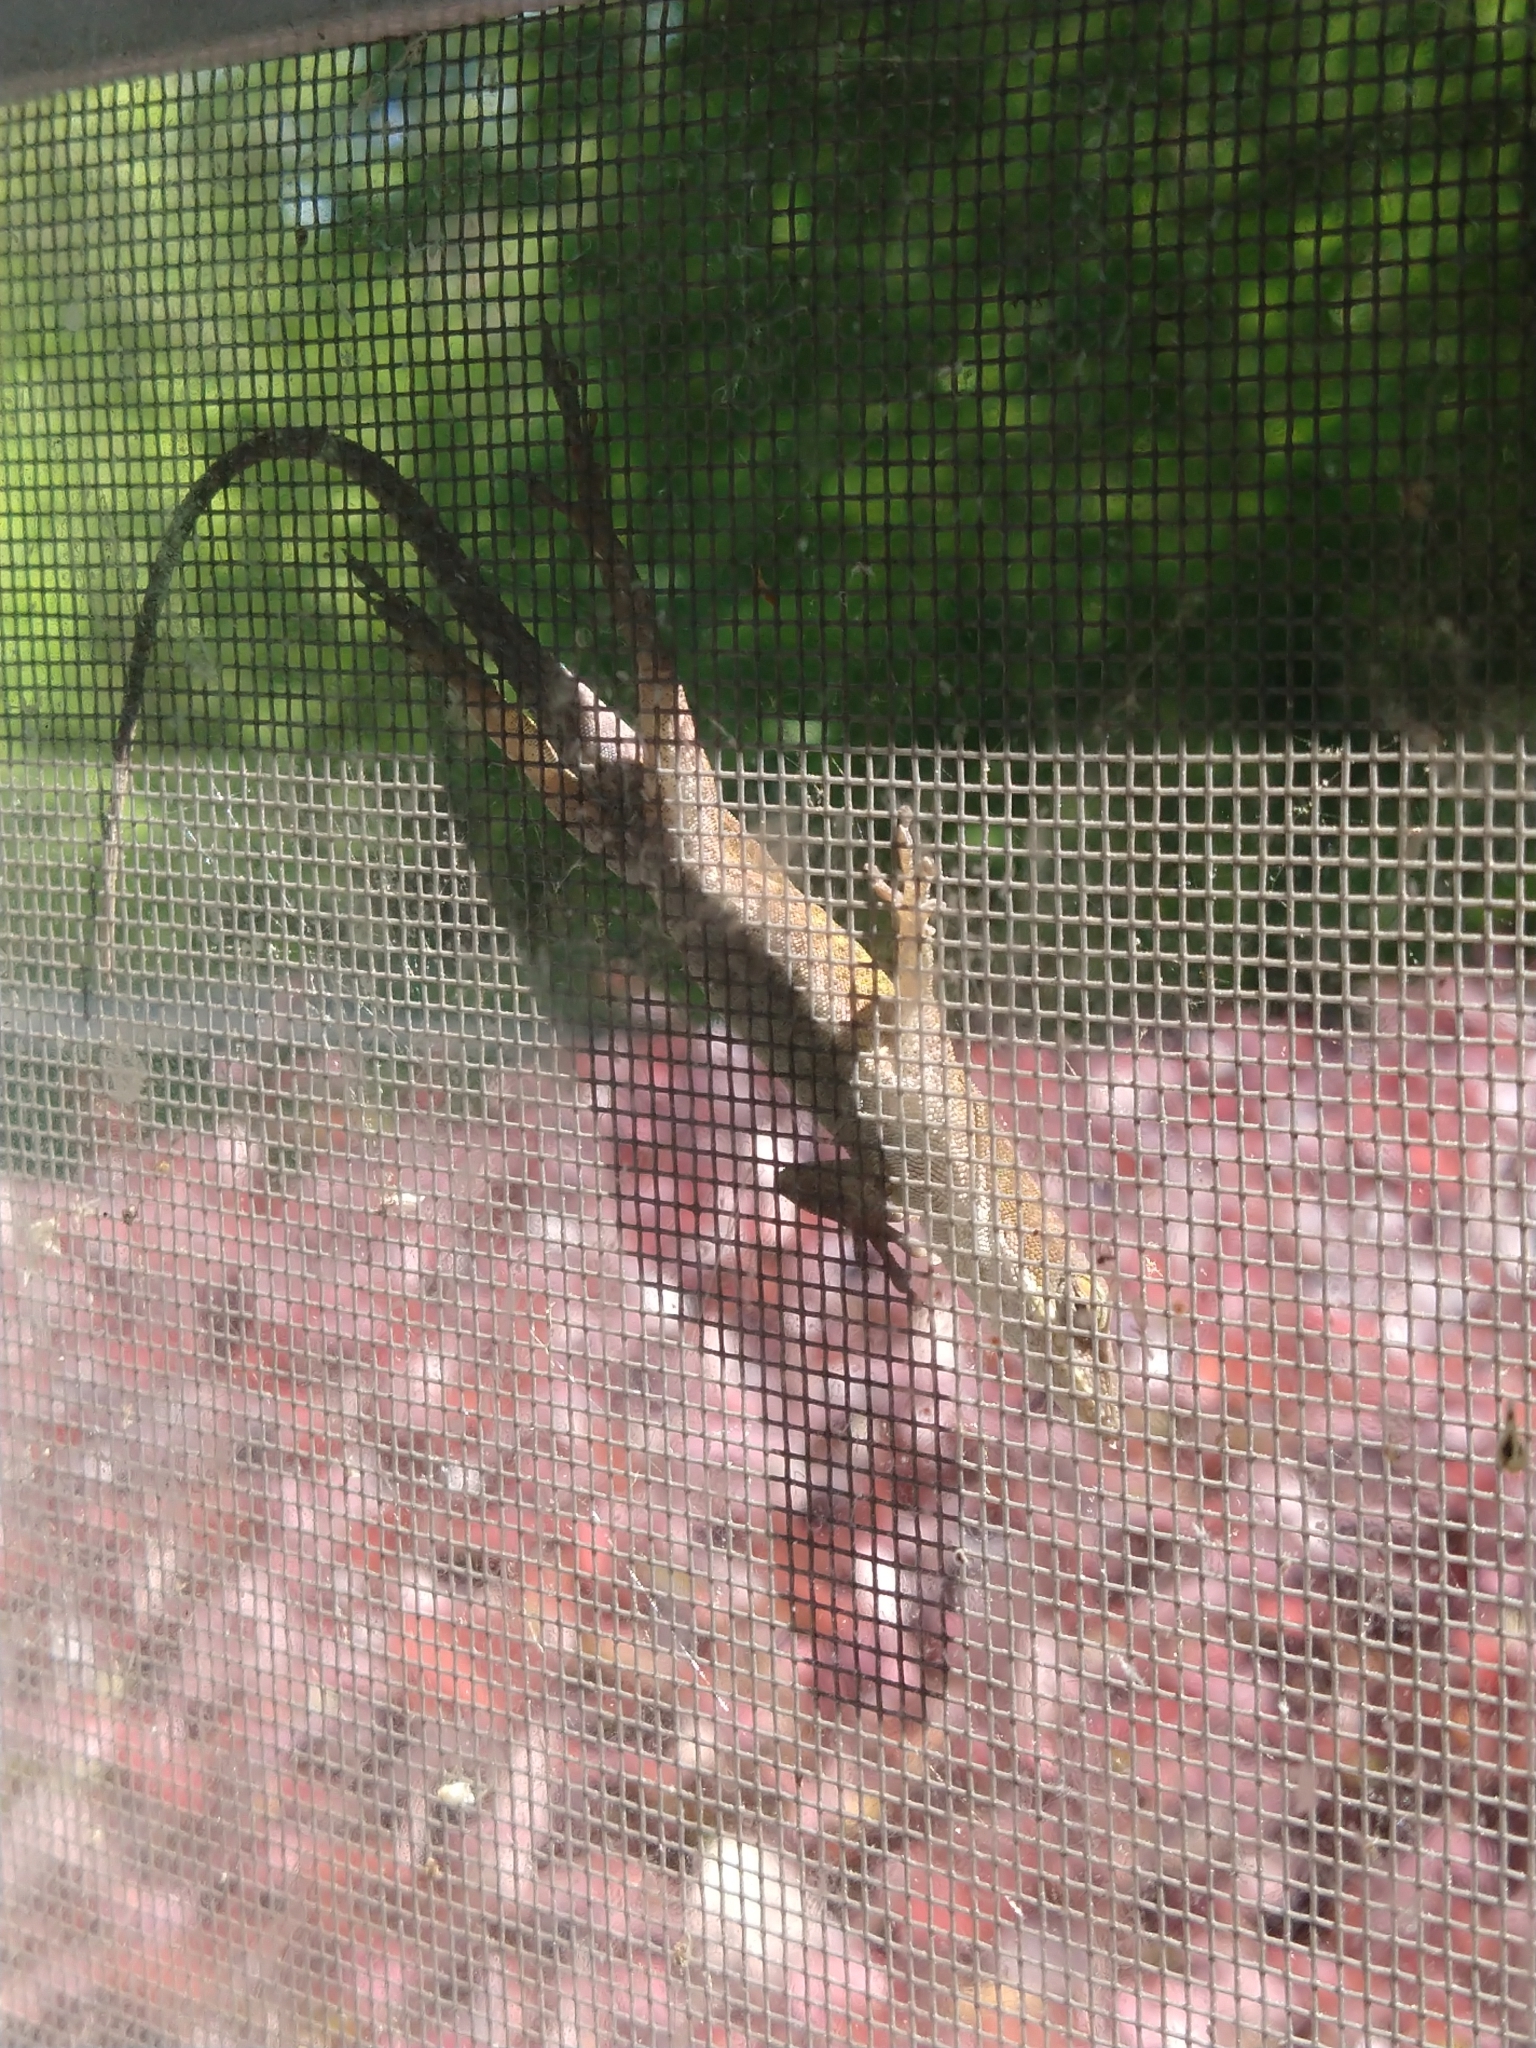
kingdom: Animalia
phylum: Chordata
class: Squamata
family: Dactyloidae
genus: Anolis
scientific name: Anolis carolinensis
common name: Green anole
